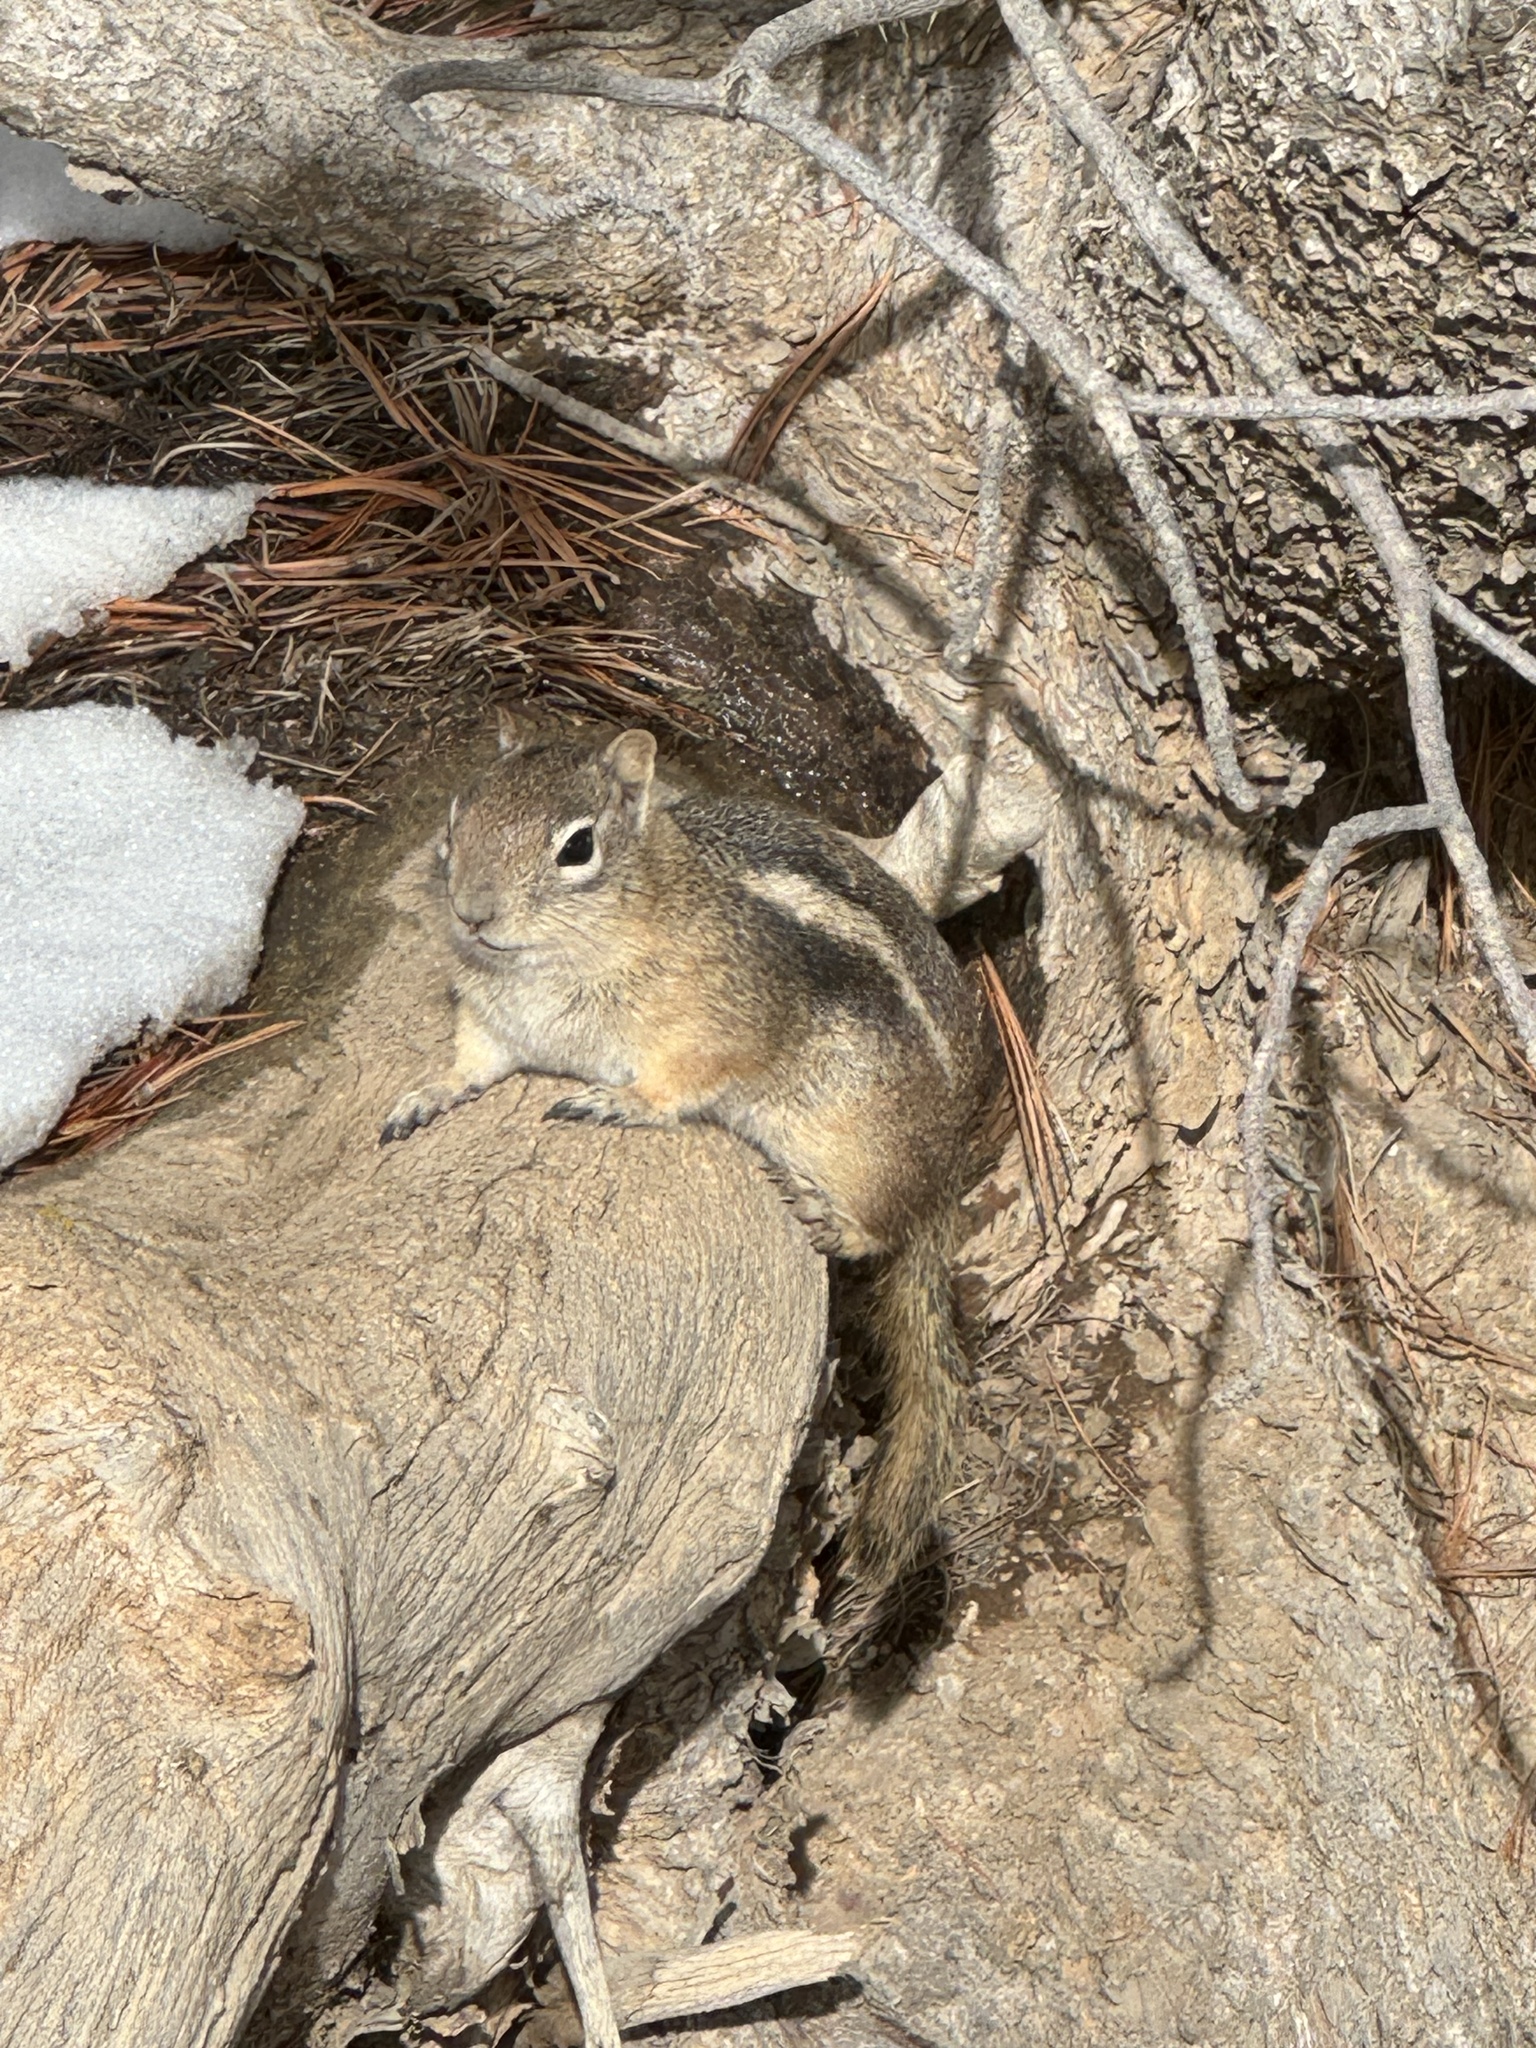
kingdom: Animalia
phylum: Chordata
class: Mammalia
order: Rodentia
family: Sciuridae
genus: Callospermophilus
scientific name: Callospermophilus lateralis
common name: Golden-mantled ground squirrel
